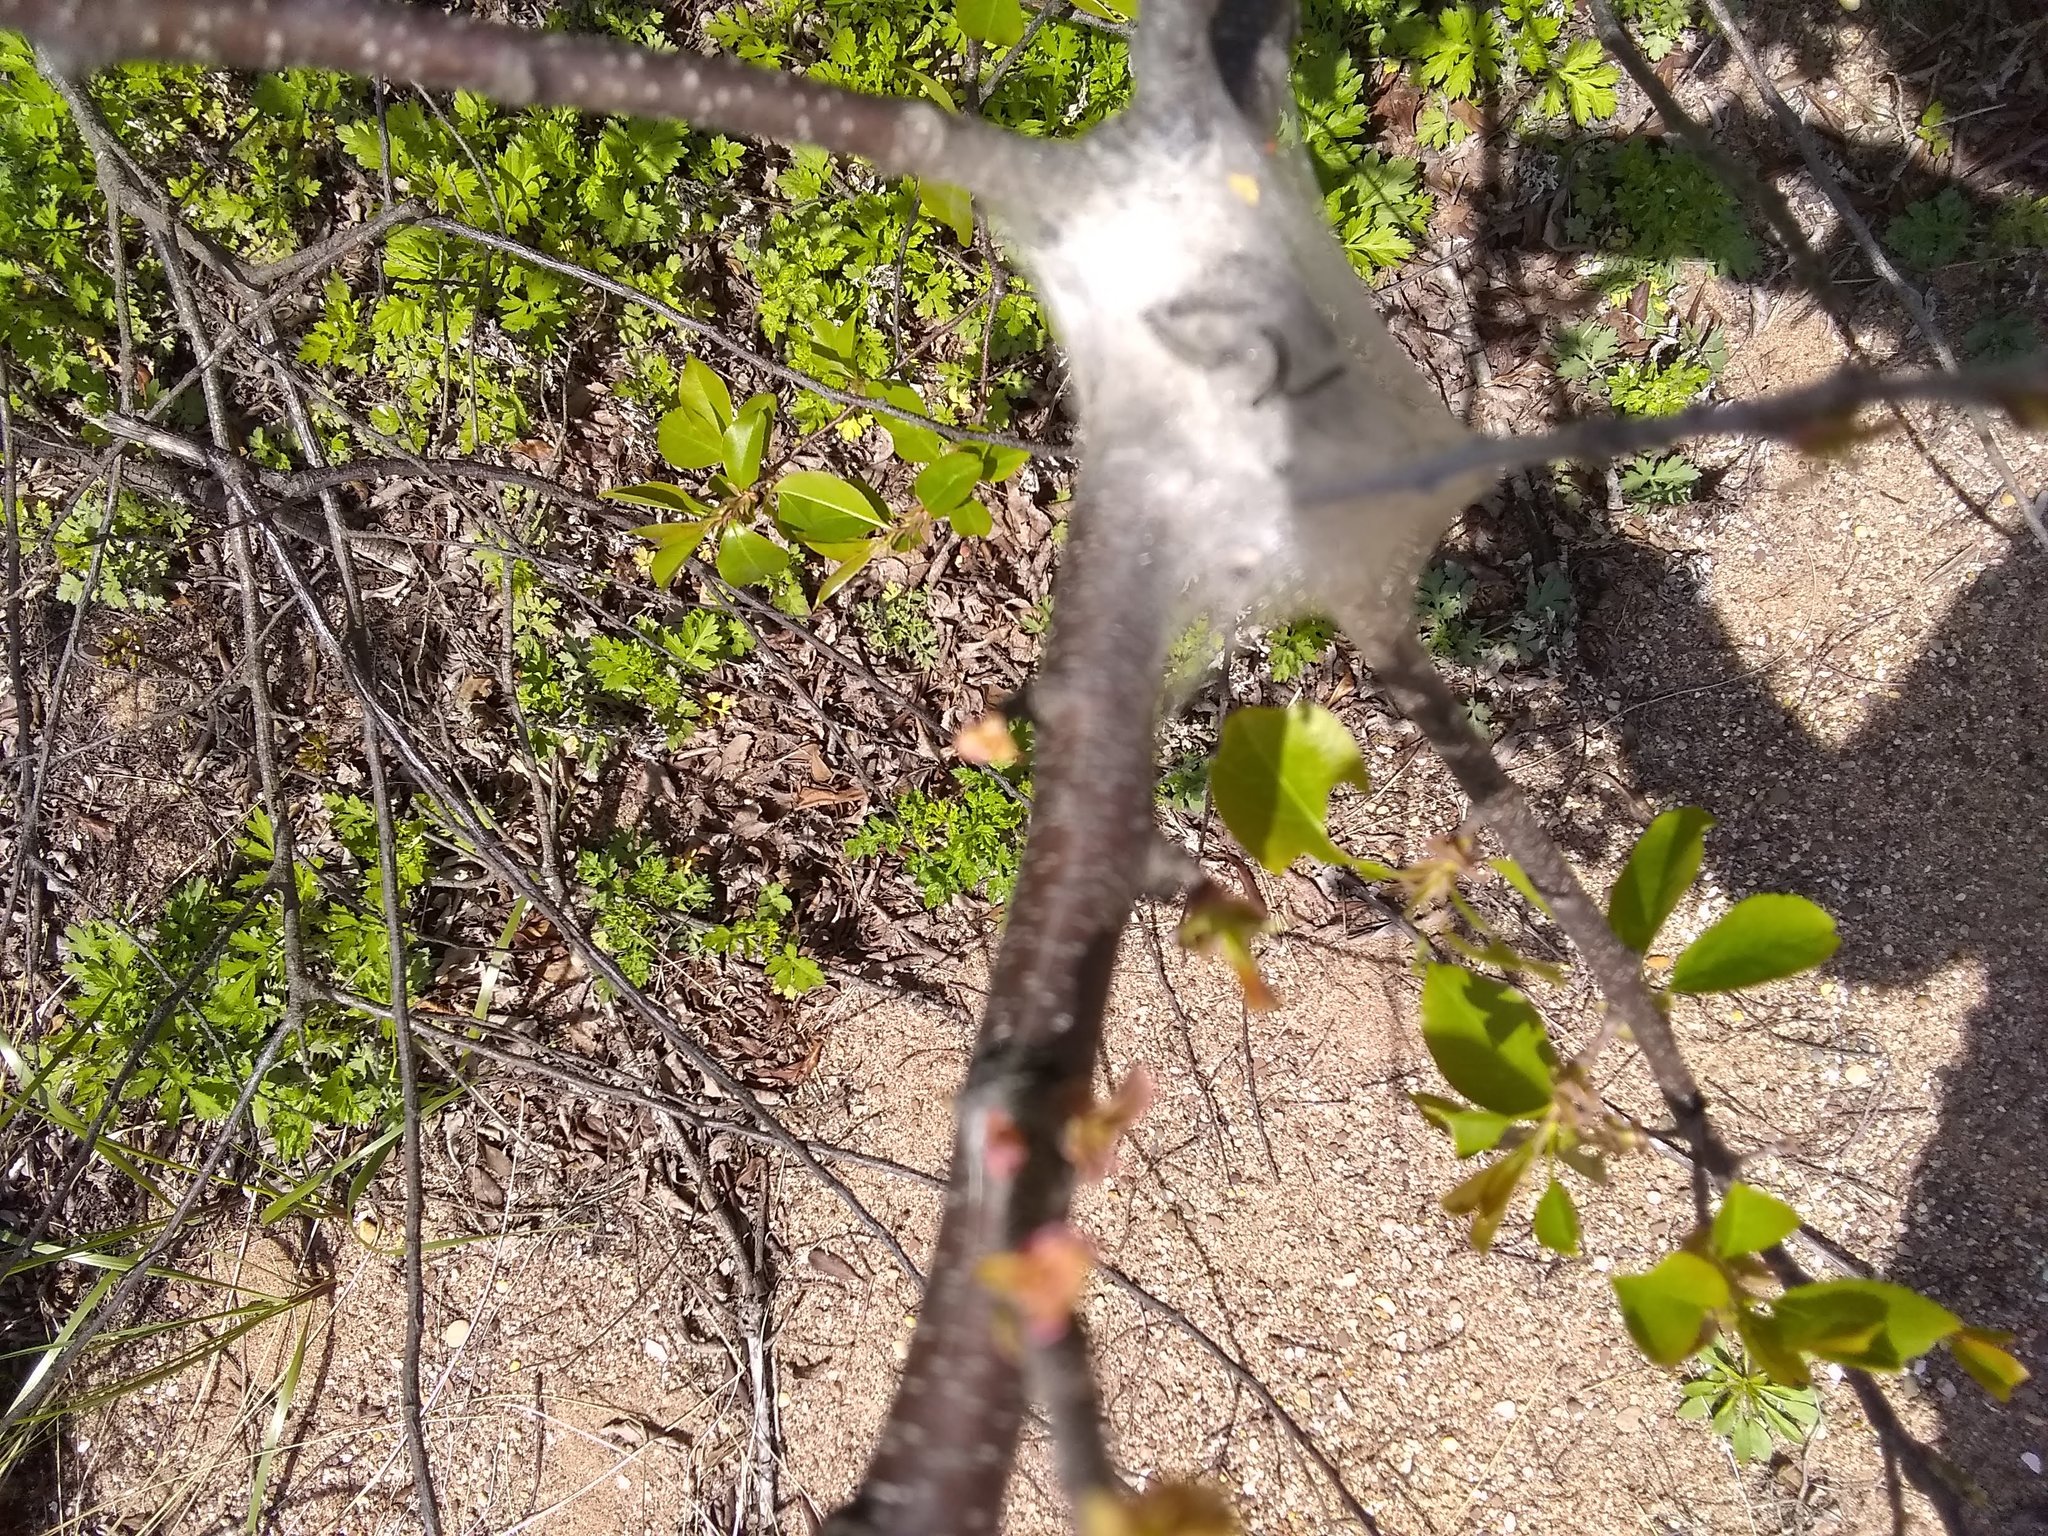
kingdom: Animalia
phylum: Arthropoda
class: Insecta
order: Lepidoptera
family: Lasiocampidae
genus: Malacosoma
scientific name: Malacosoma americana
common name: Eastern tent caterpillar moth
